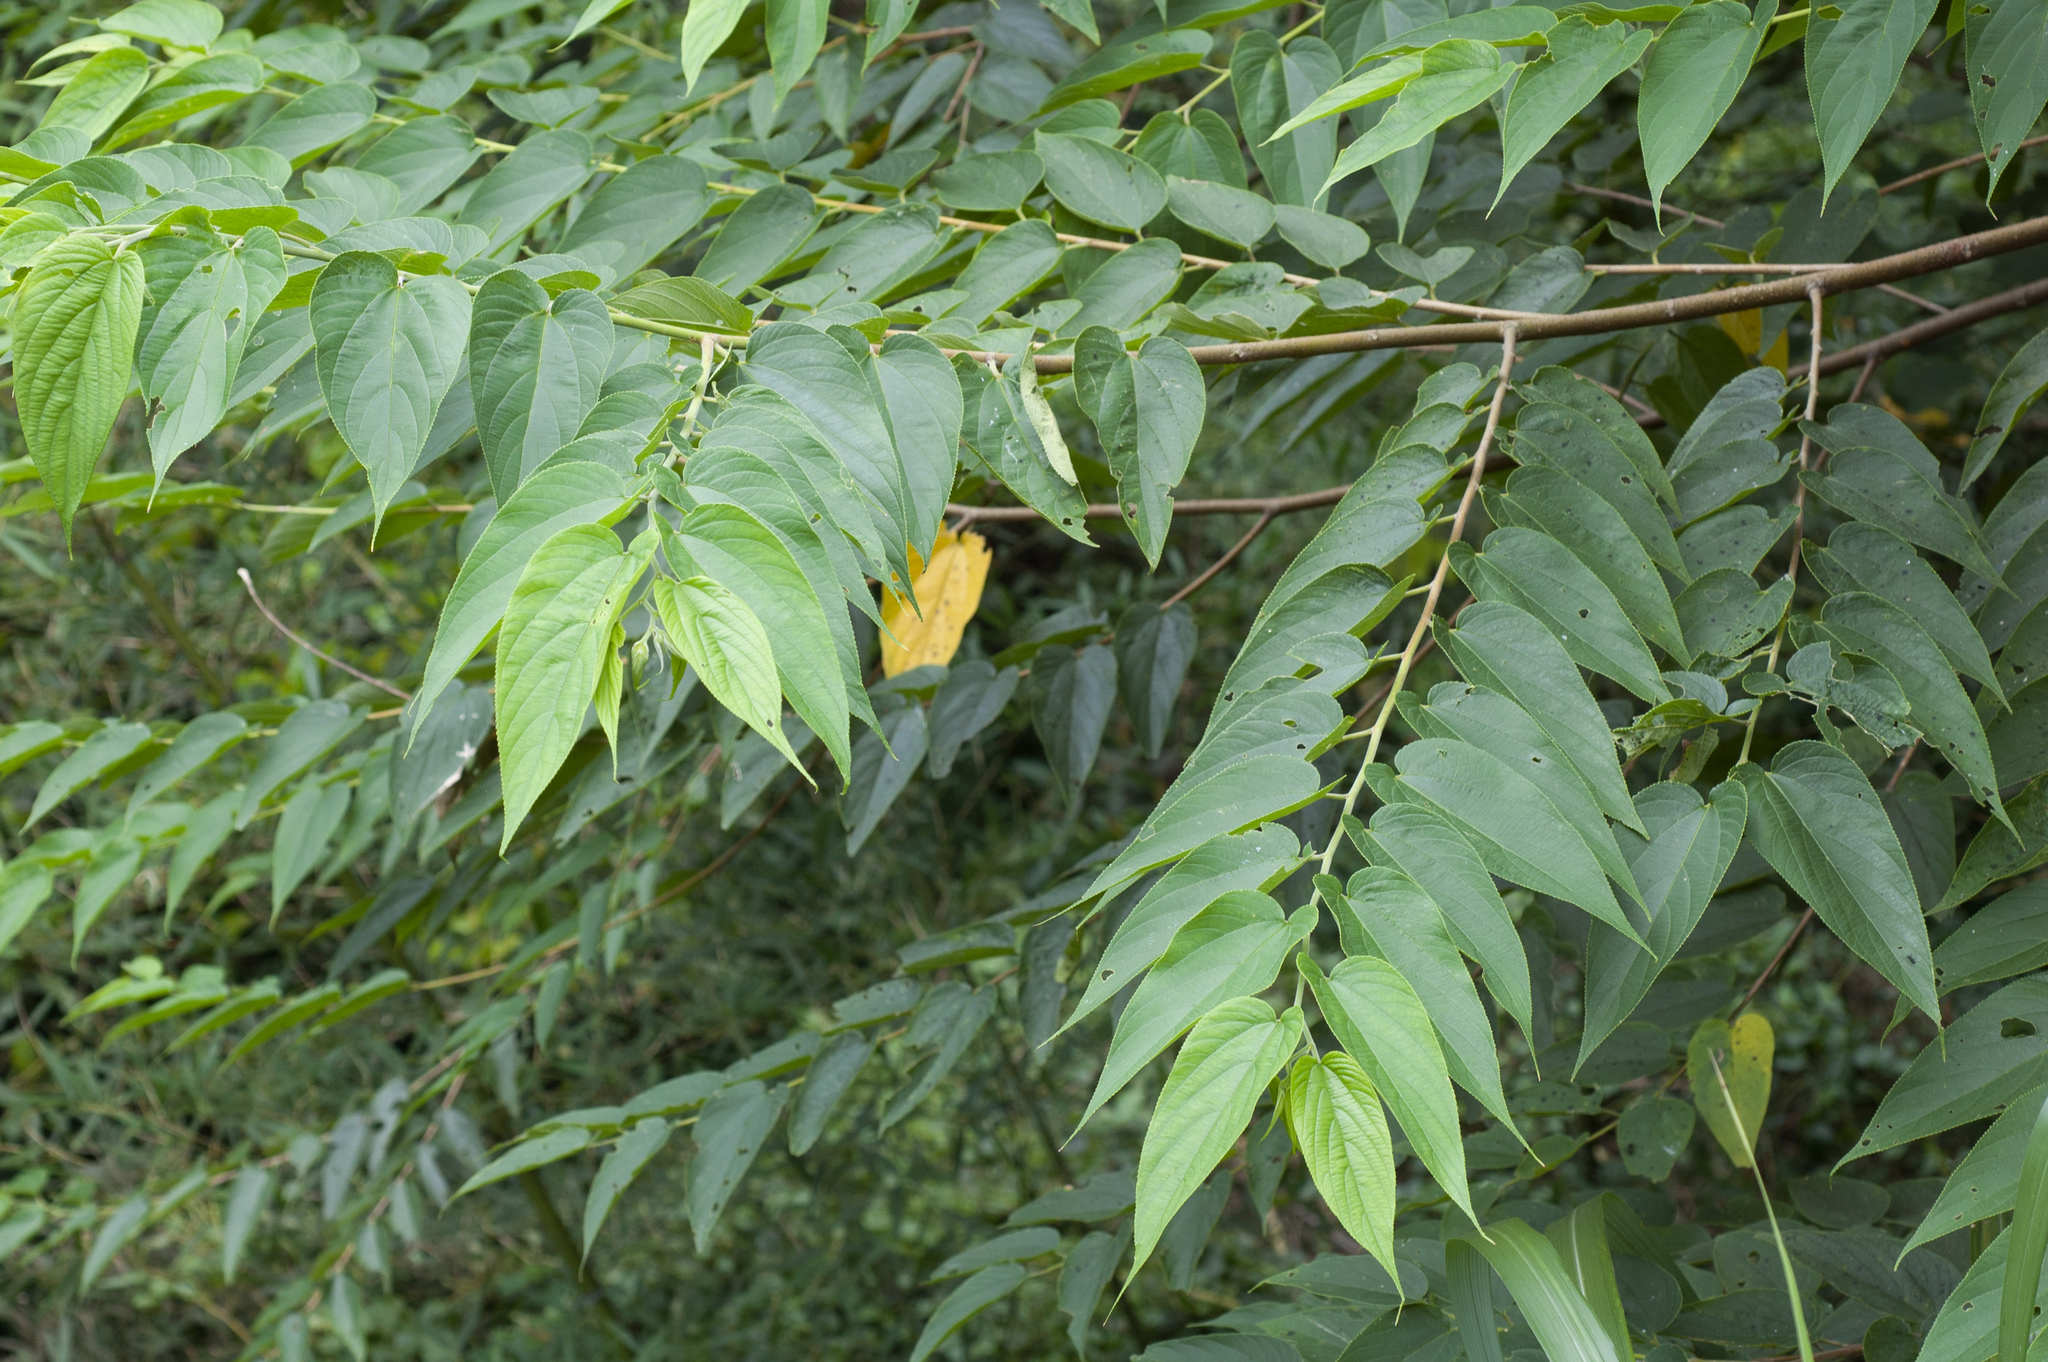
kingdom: Plantae
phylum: Tracheophyta
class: Magnoliopsida
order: Rosales
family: Cannabaceae
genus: Trema
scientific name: Trema orientale
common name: Indian charcoal tree
